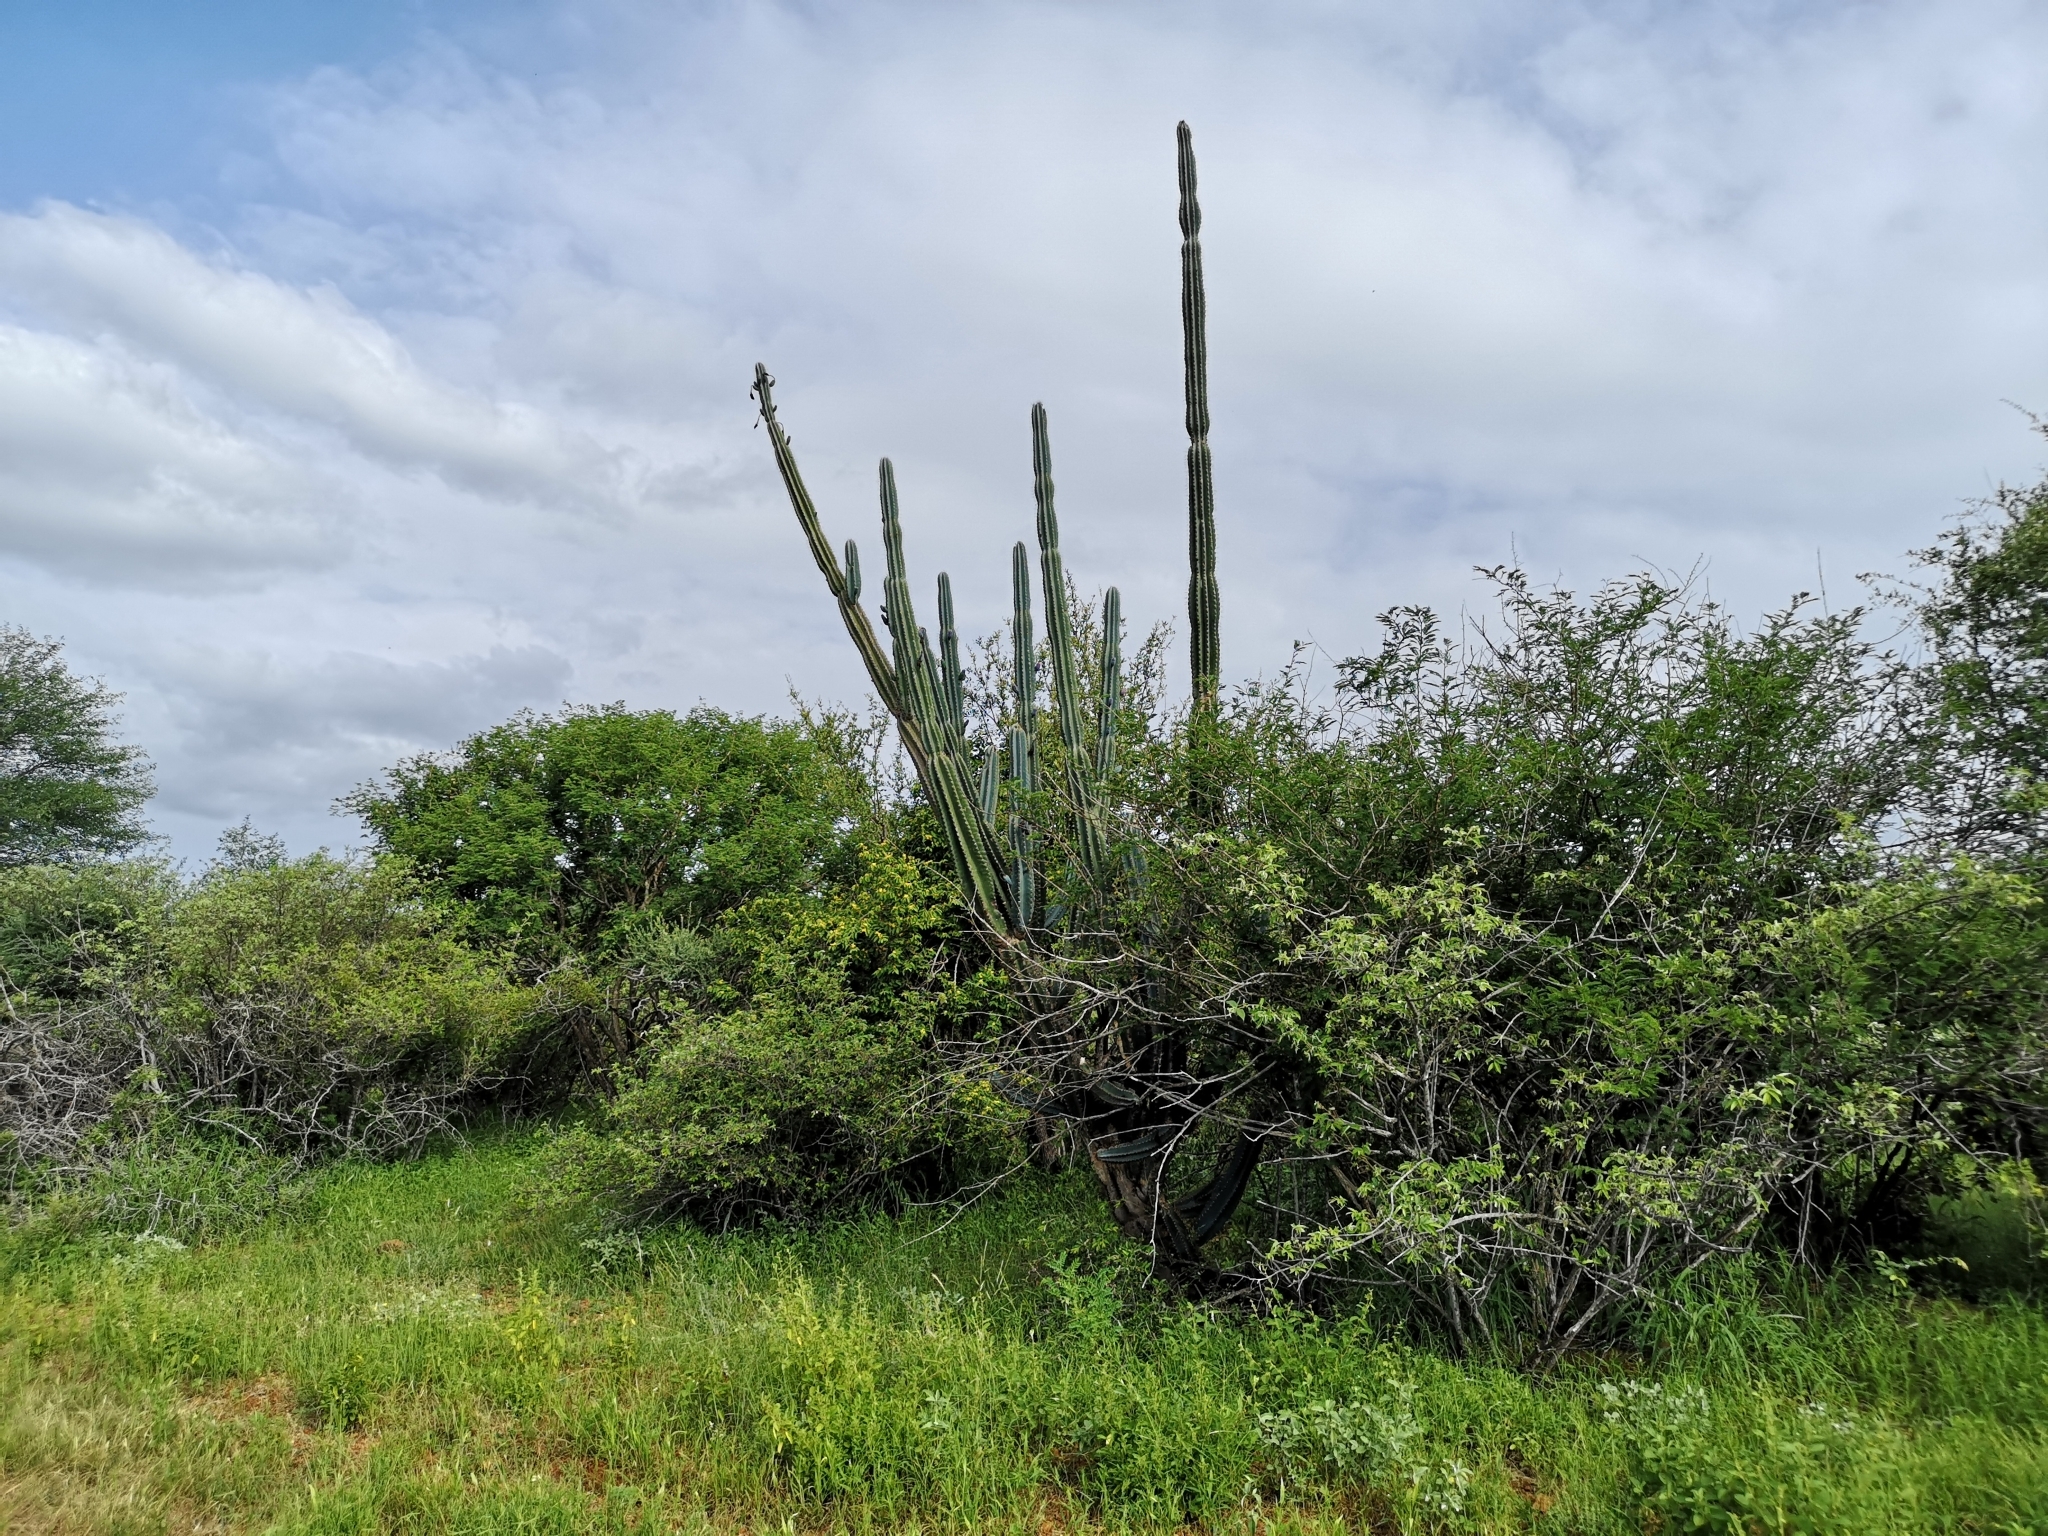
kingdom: Plantae
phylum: Tracheophyta
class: Magnoliopsida
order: Caryophyllales
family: Cactaceae
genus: Cereus
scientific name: Cereus jamacaru
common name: Queen-of-the-night
